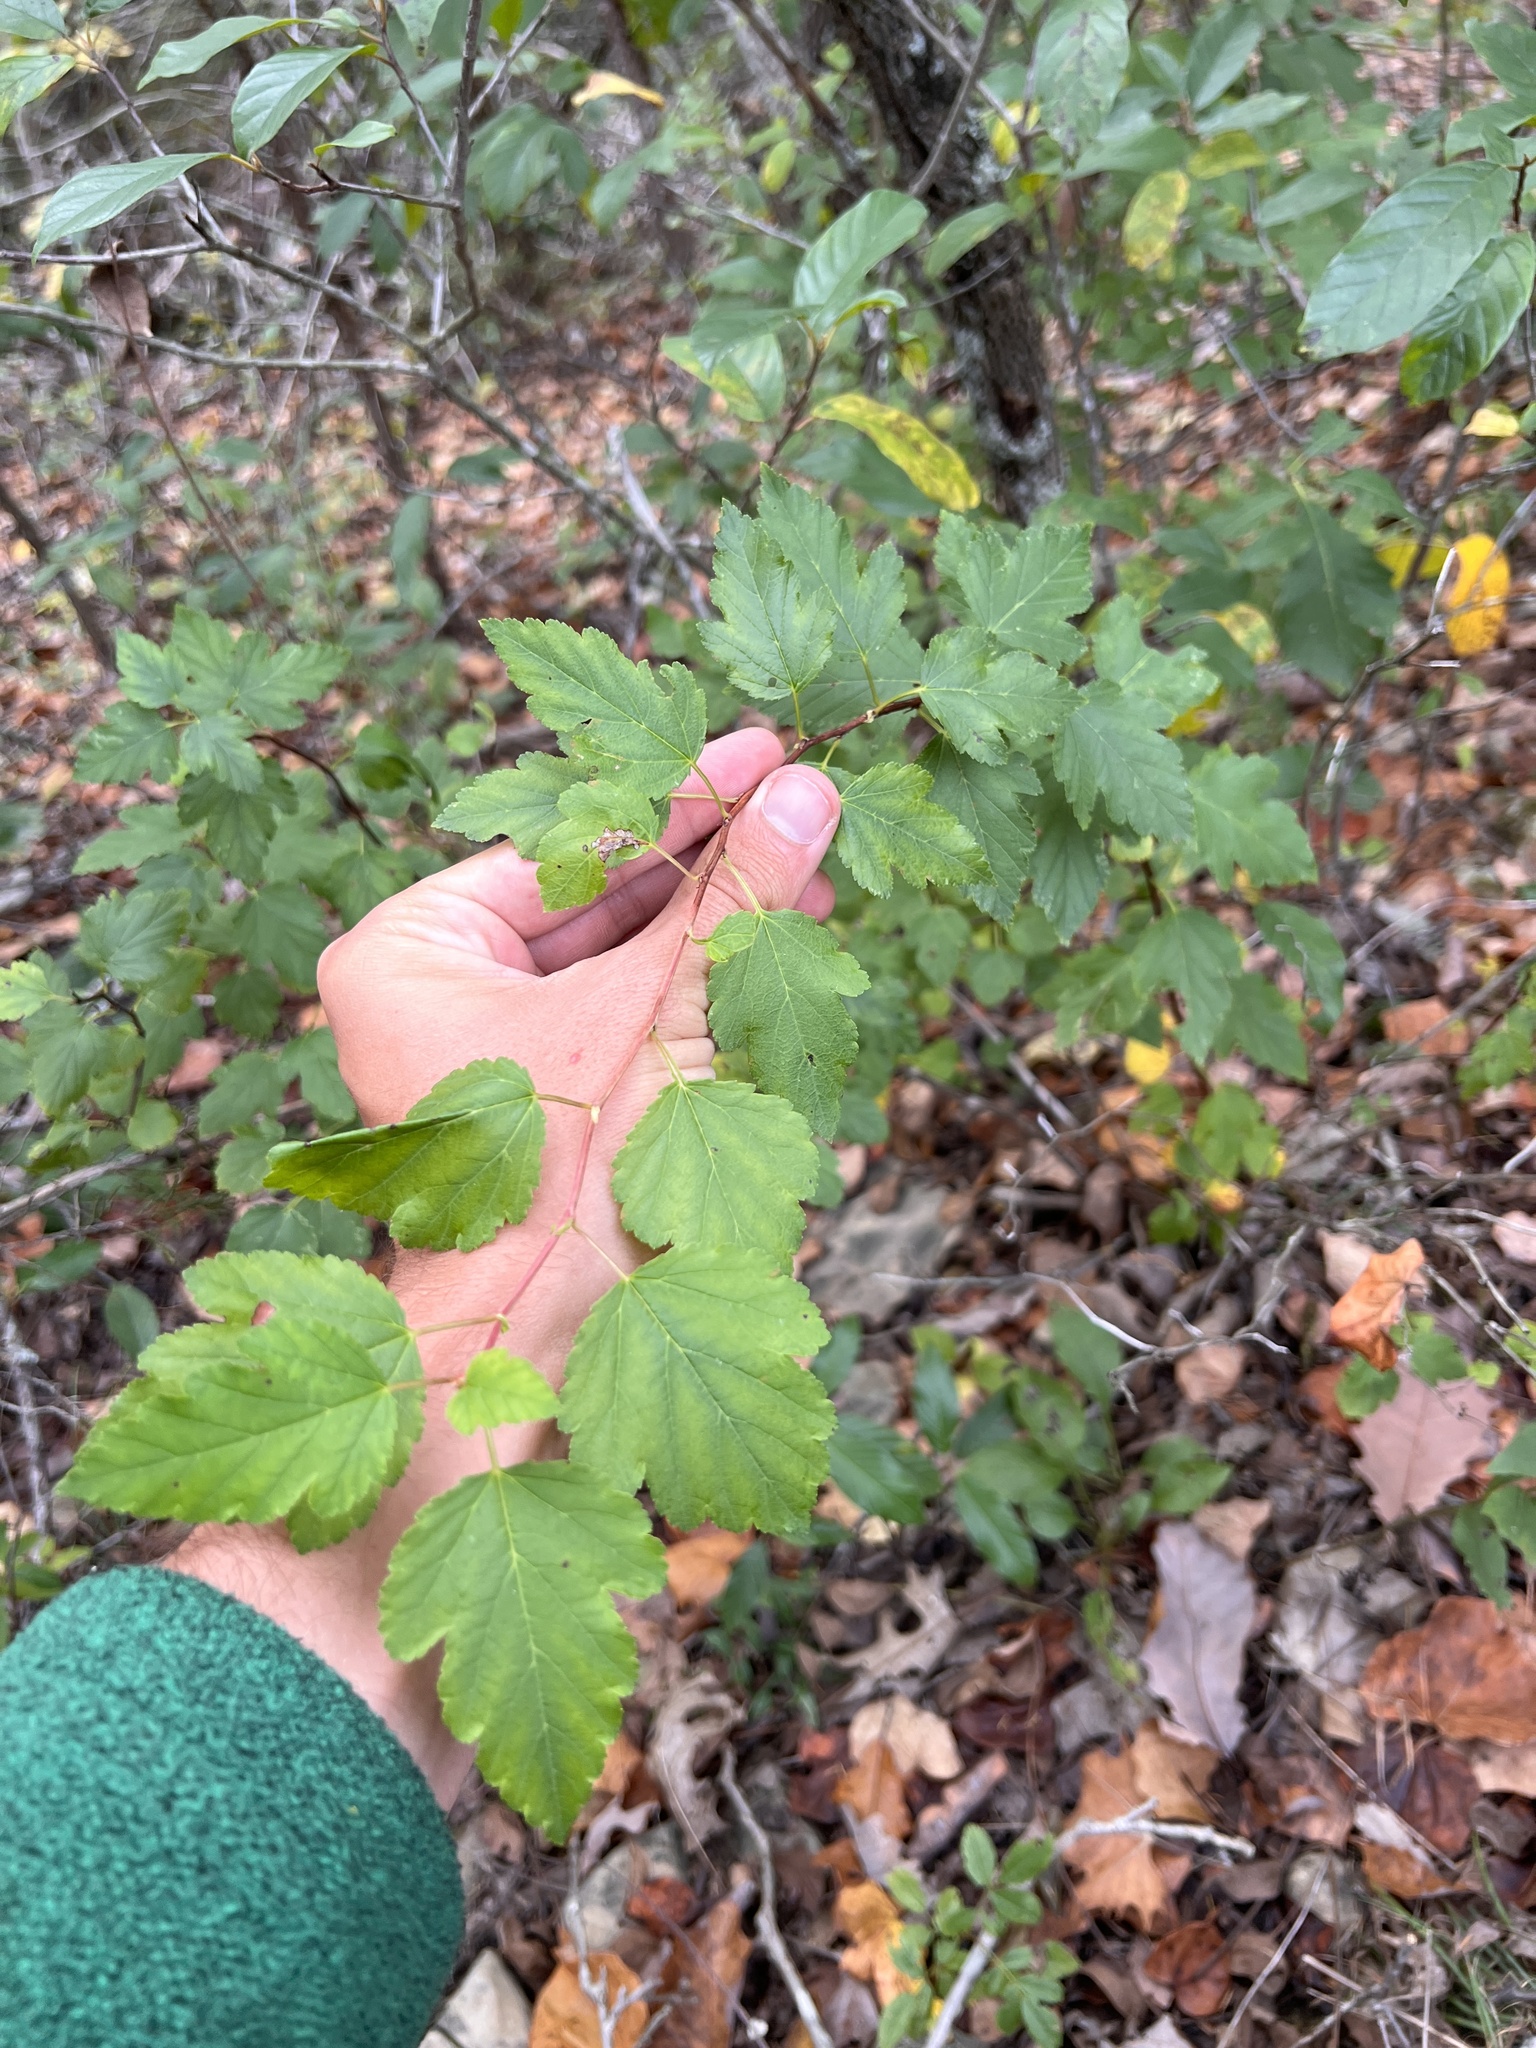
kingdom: Plantae
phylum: Tracheophyta
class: Magnoliopsida
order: Rosales
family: Rosaceae
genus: Physocarpus
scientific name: Physocarpus intermedius
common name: Midwestern ninebark
